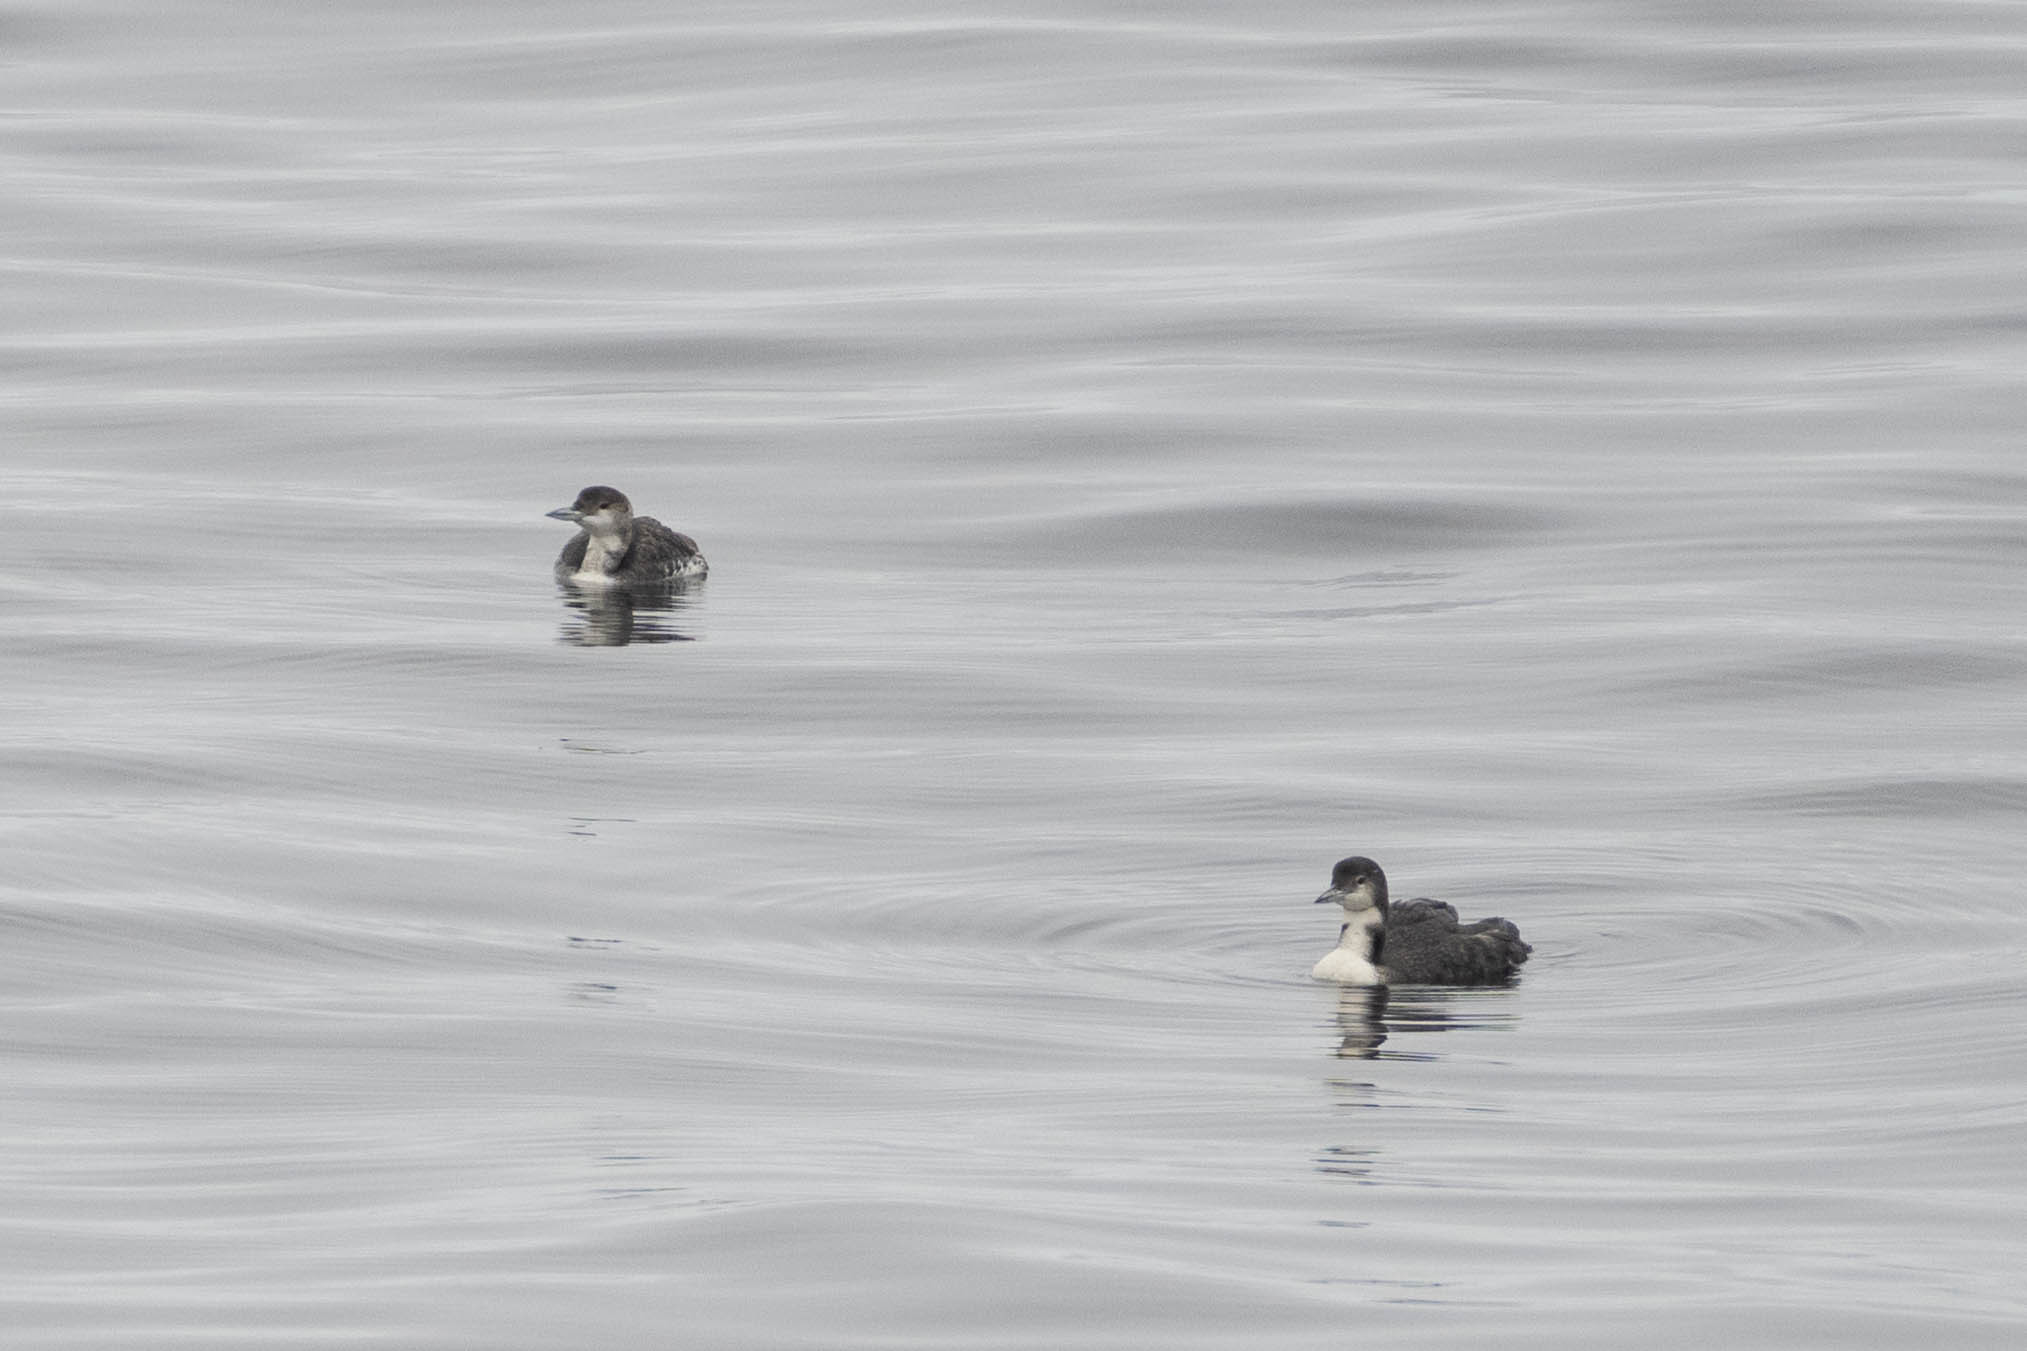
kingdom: Animalia
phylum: Chordata
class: Aves
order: Gaviiformes
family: Gaviidae
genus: Gavia
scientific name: Gavia pacifica
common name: Pacific loon
